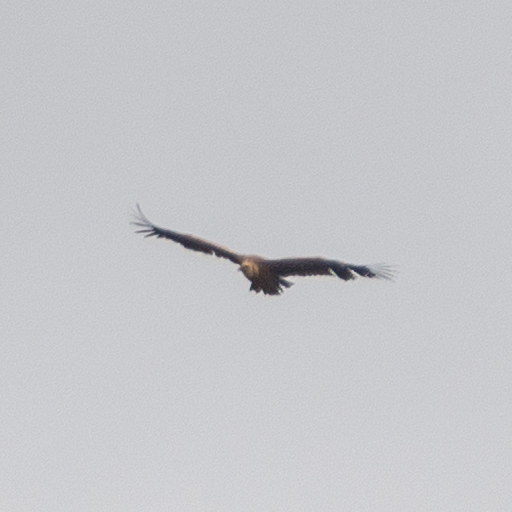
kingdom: Animalia
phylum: Chordata
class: Aves
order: Accipitriformes
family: Accipitridae
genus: Gyps
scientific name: Gyps fulvus
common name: Griffon vulture
